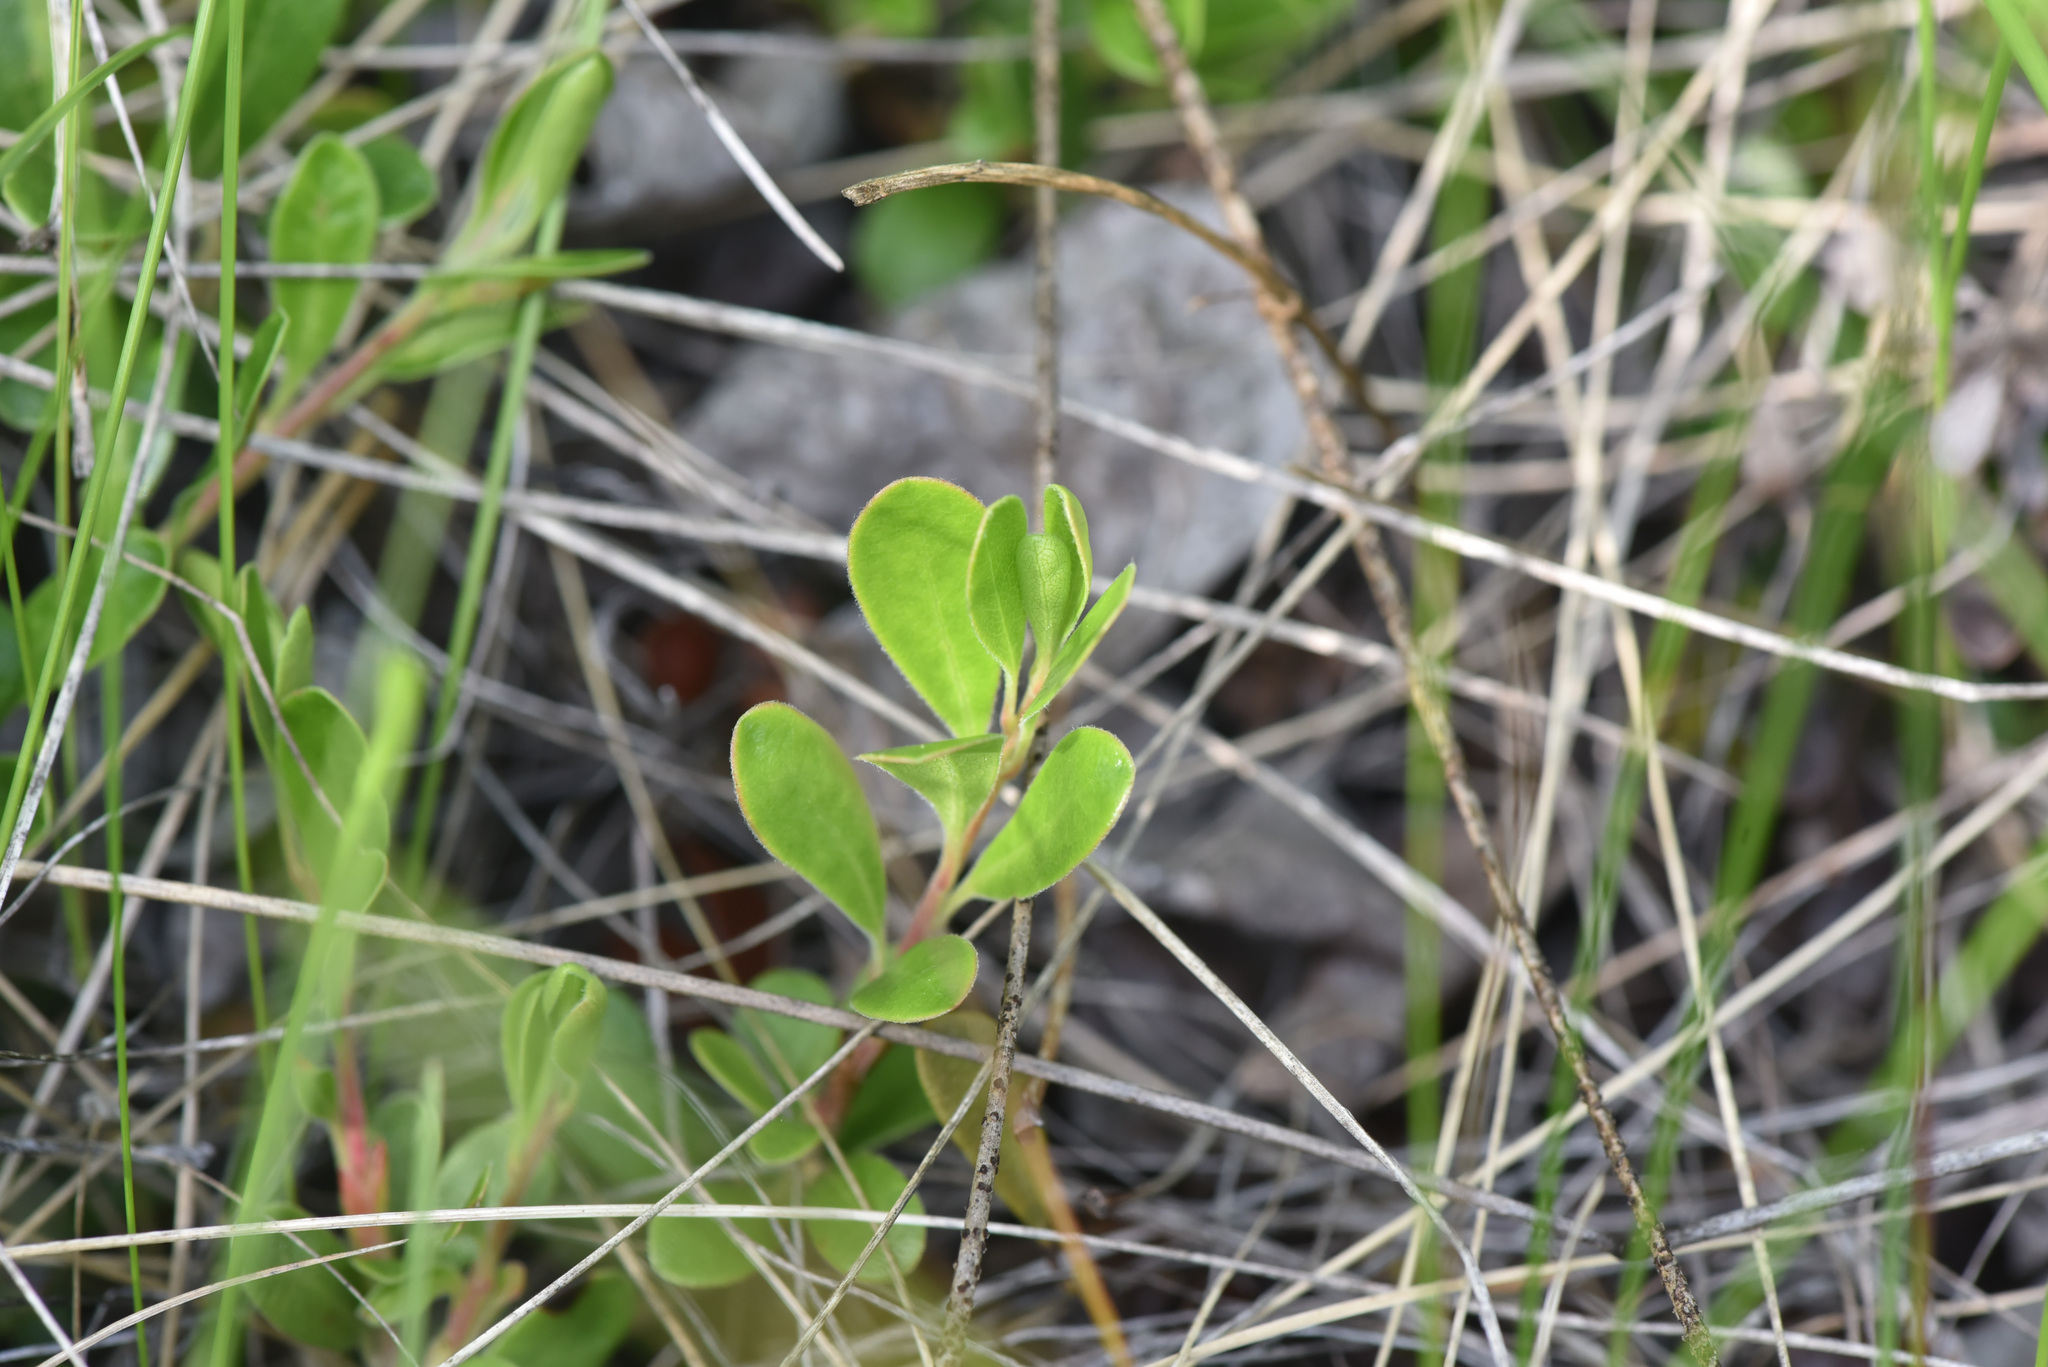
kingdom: Plantae
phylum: Tracheophyta
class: Magnoliopsida
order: Ericales
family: Ericaceae
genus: Arctostaphylos
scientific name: Arctostaphylos uva-ursi
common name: Bearberry
